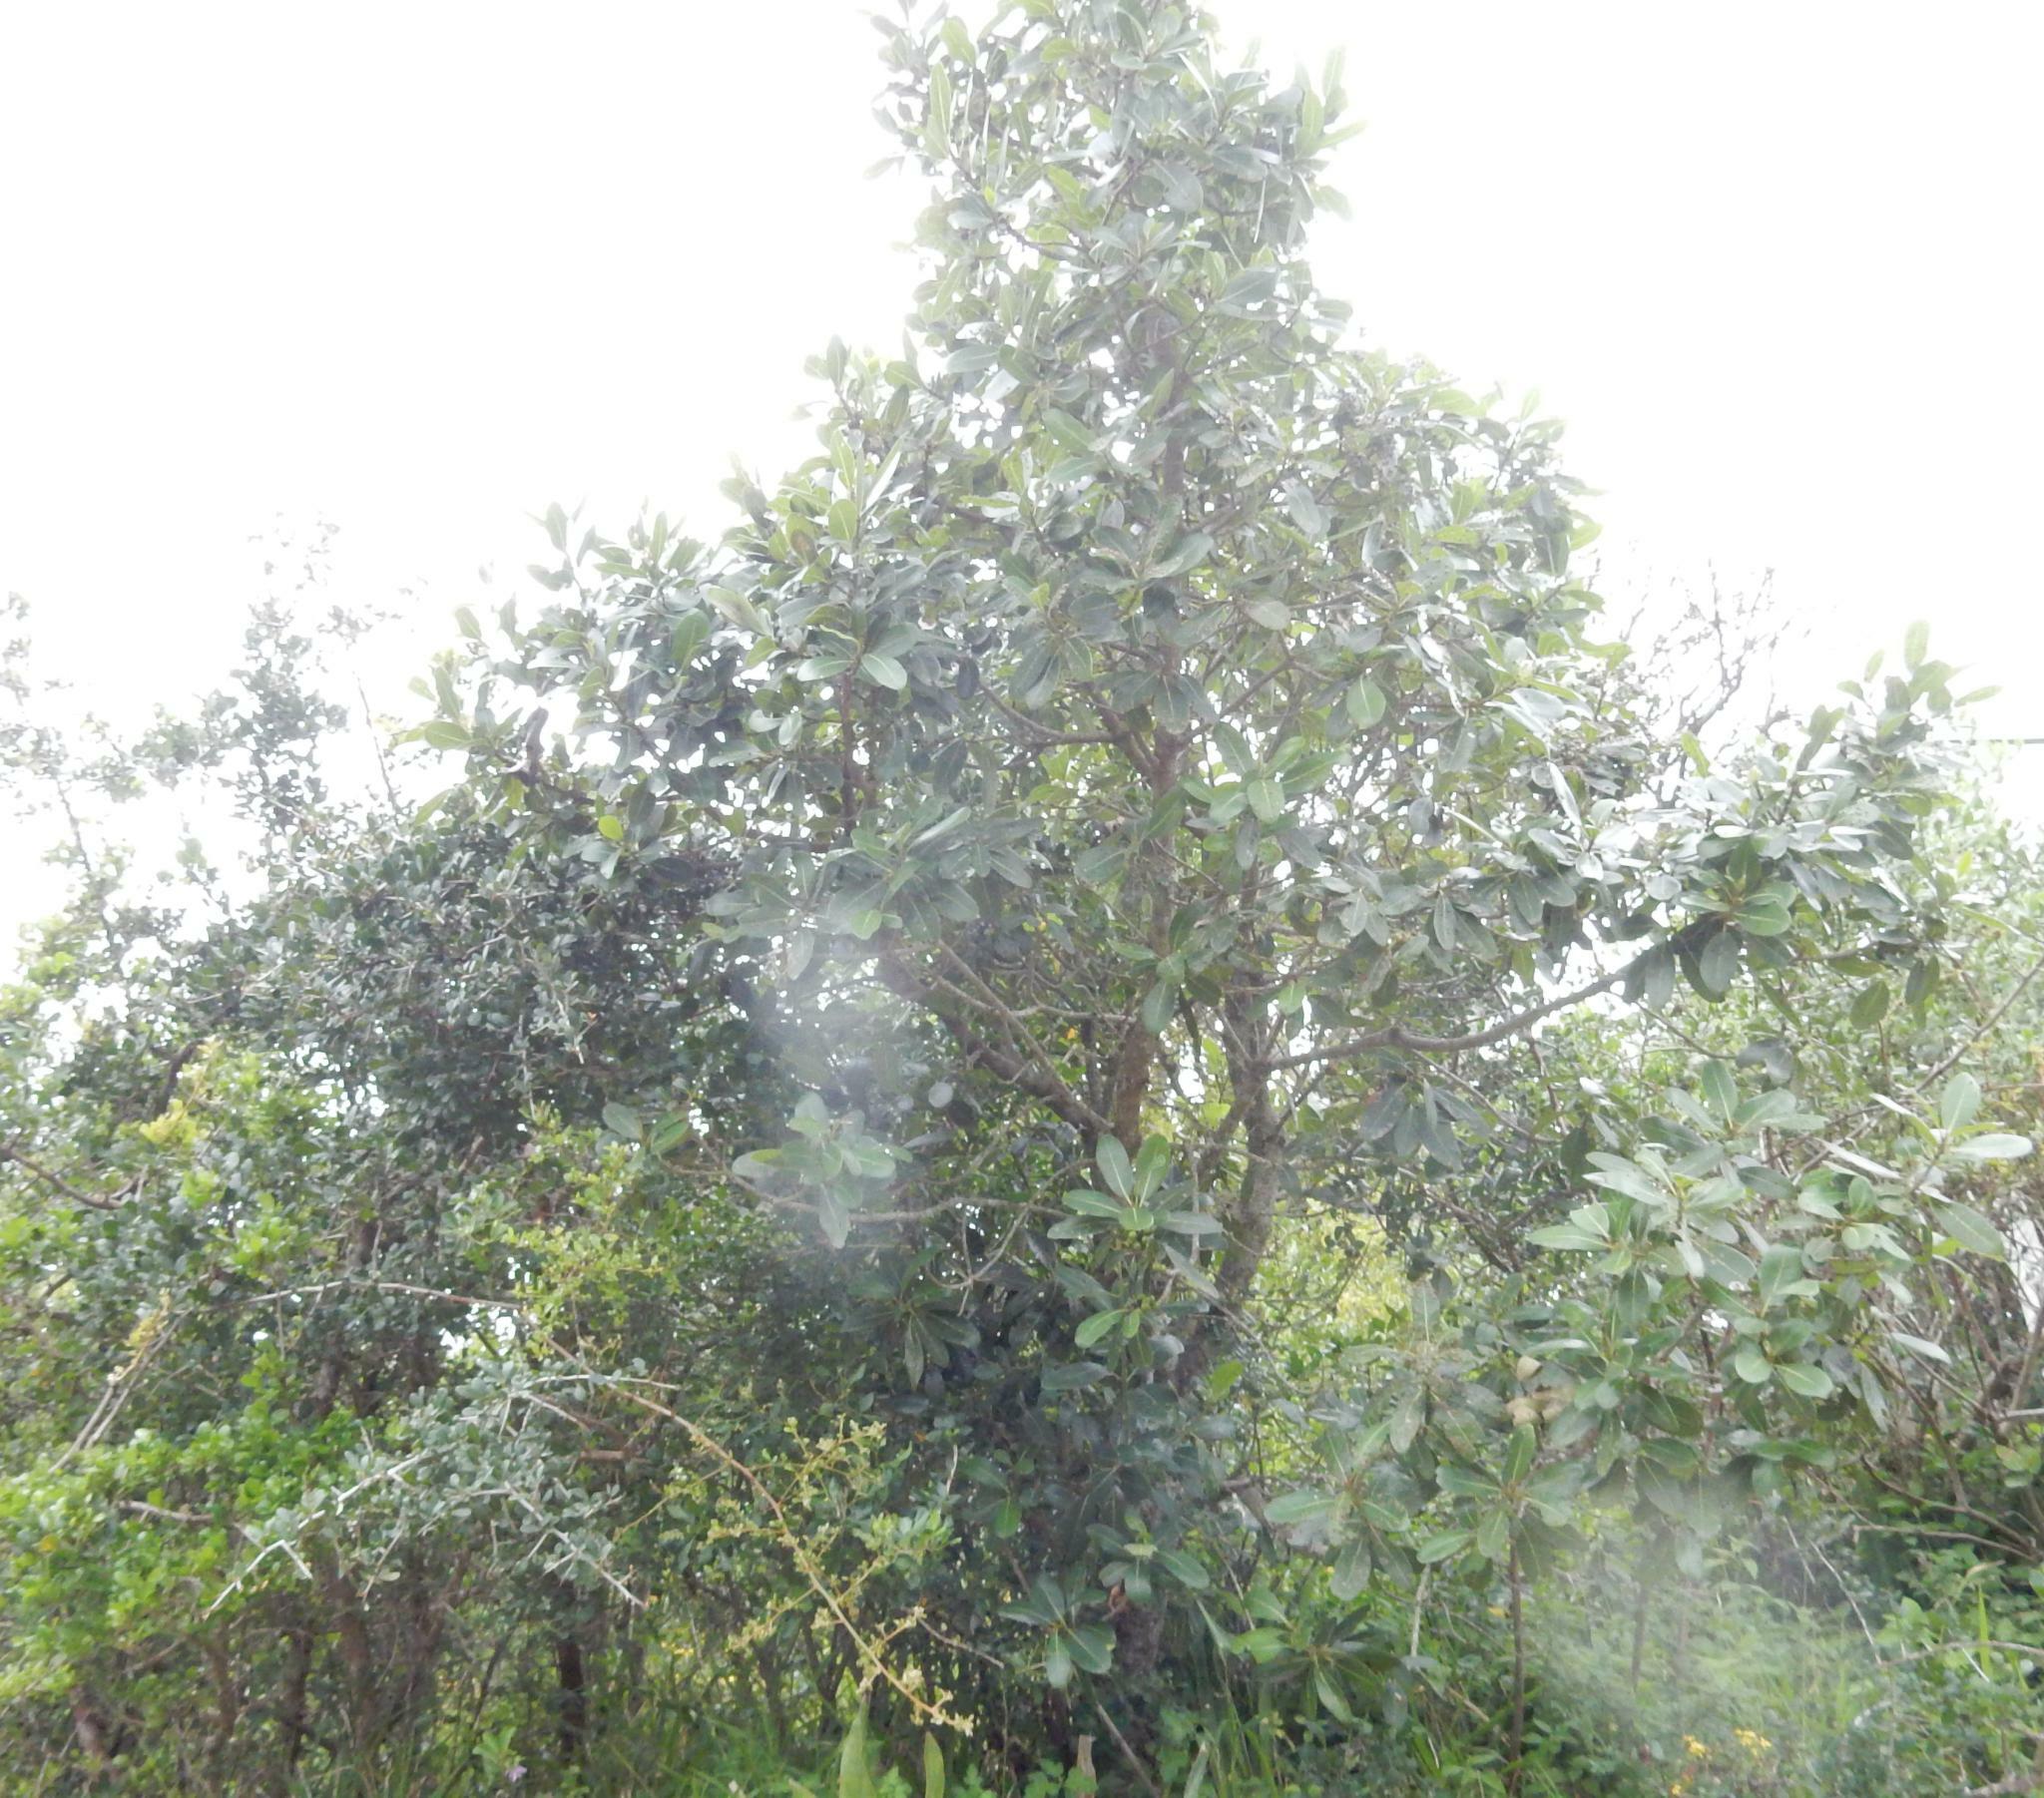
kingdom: Plantae
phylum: Tracheophyta
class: Magnoliopsida
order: Ericales
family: Sapotaceae
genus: Sideroxylon
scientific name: Sideroxylon inerme
